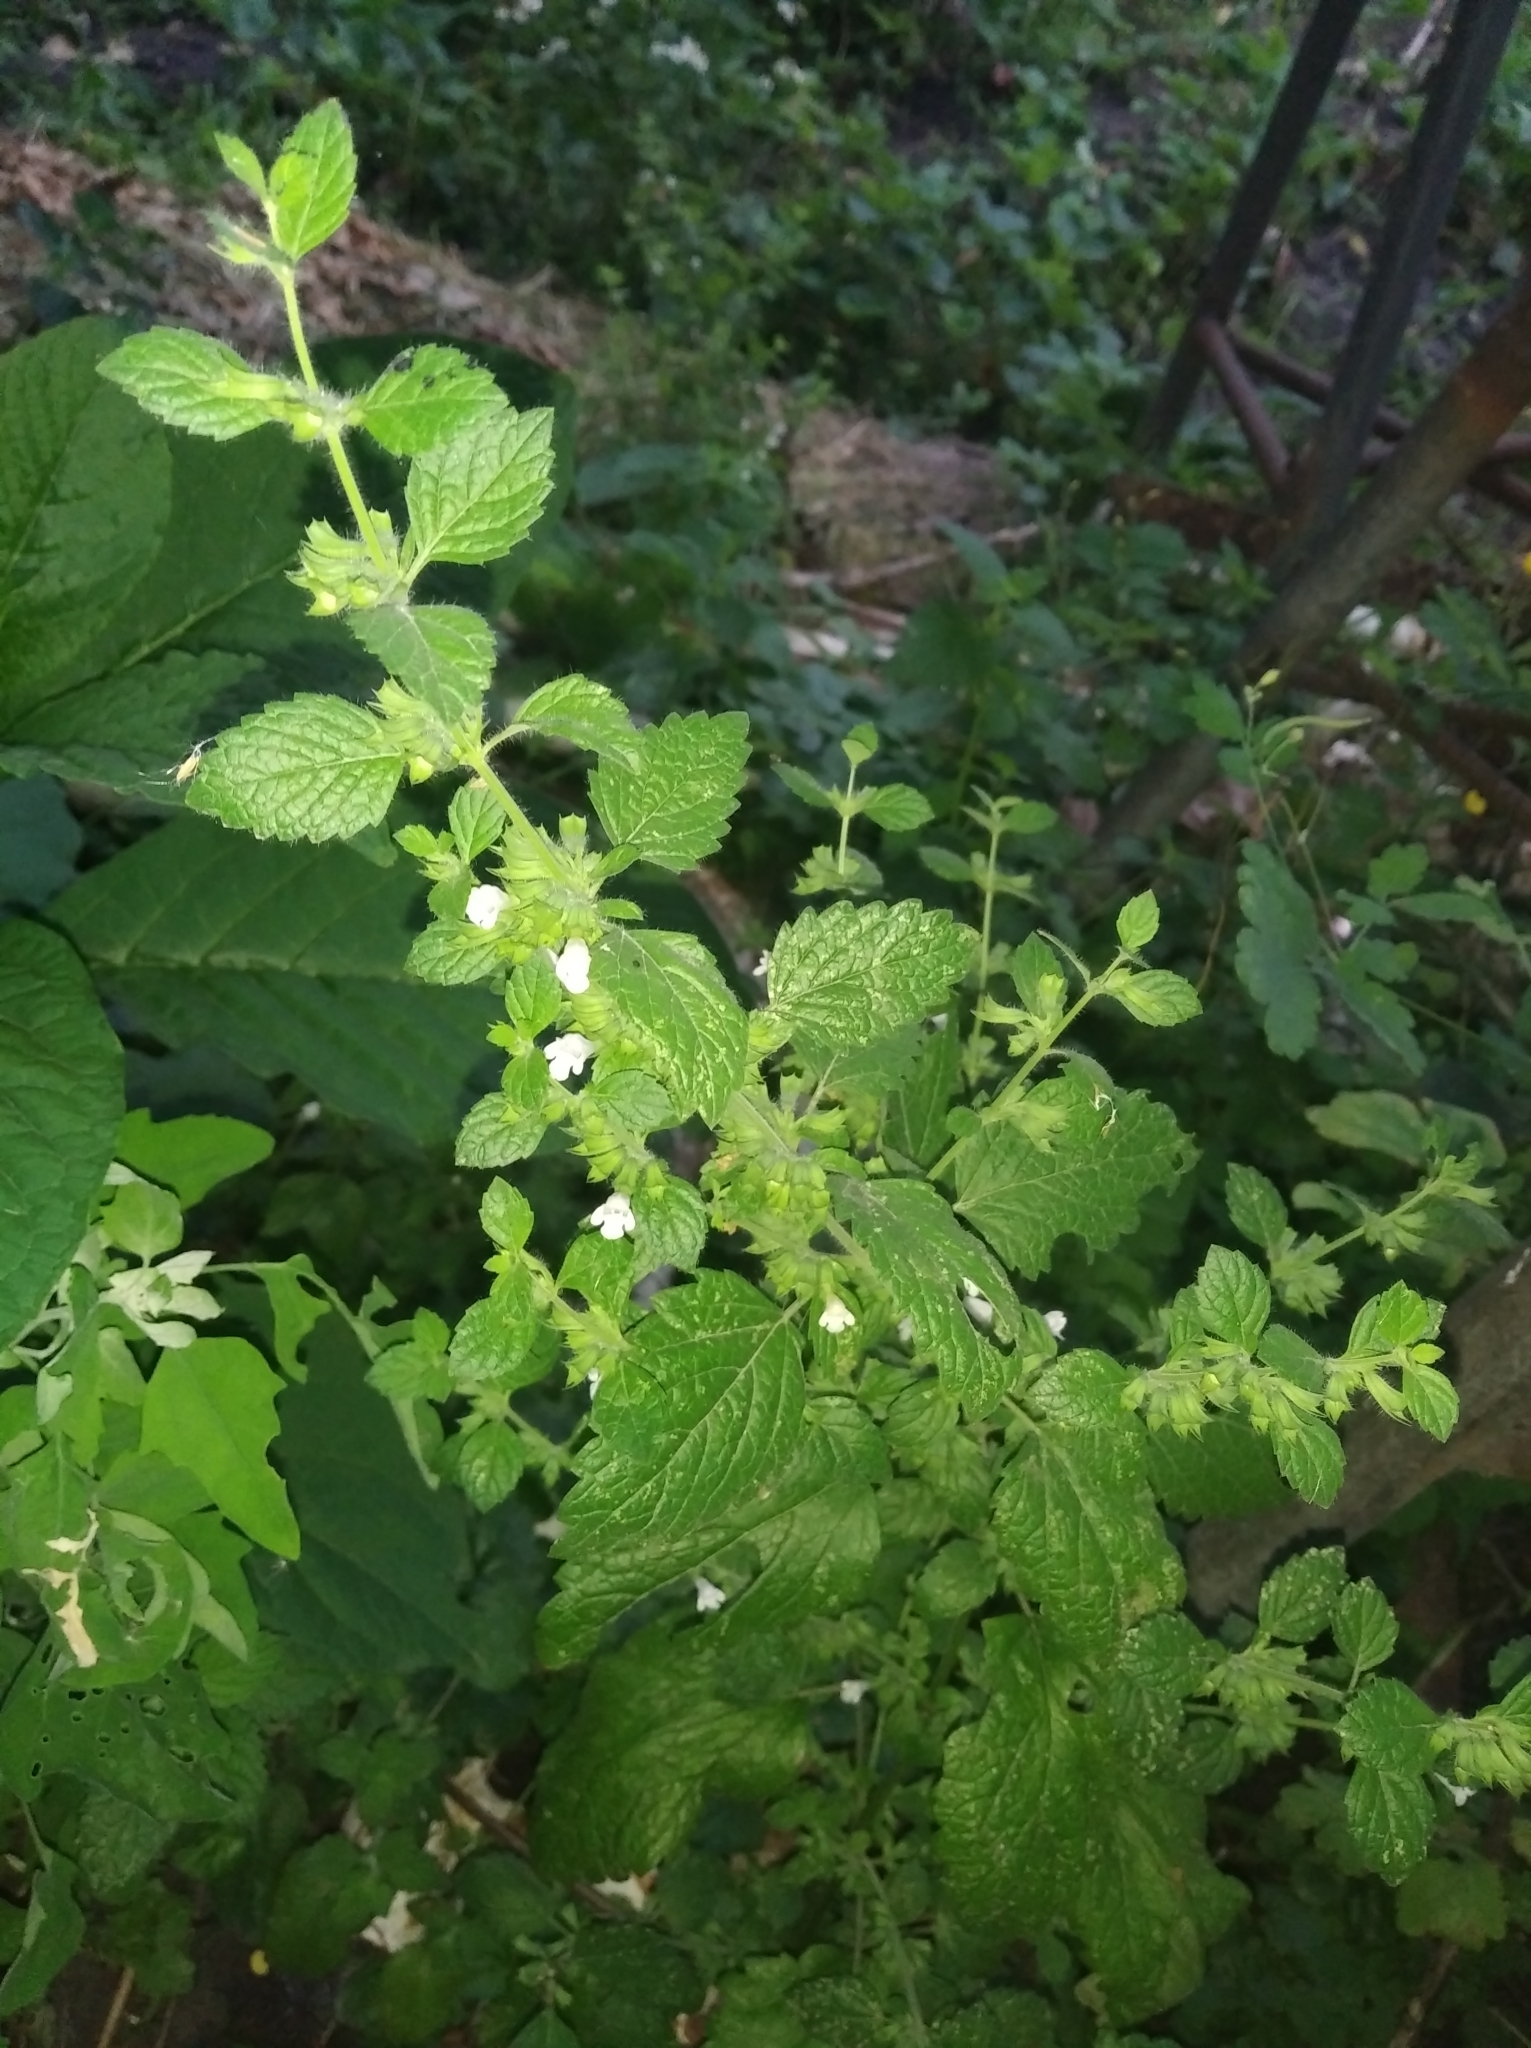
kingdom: Plantae
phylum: Tracheophyta
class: Magnoliopsida
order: Lamiales
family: Lamiaceae
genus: Melissa
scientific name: Melissa officinalis
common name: Balm
